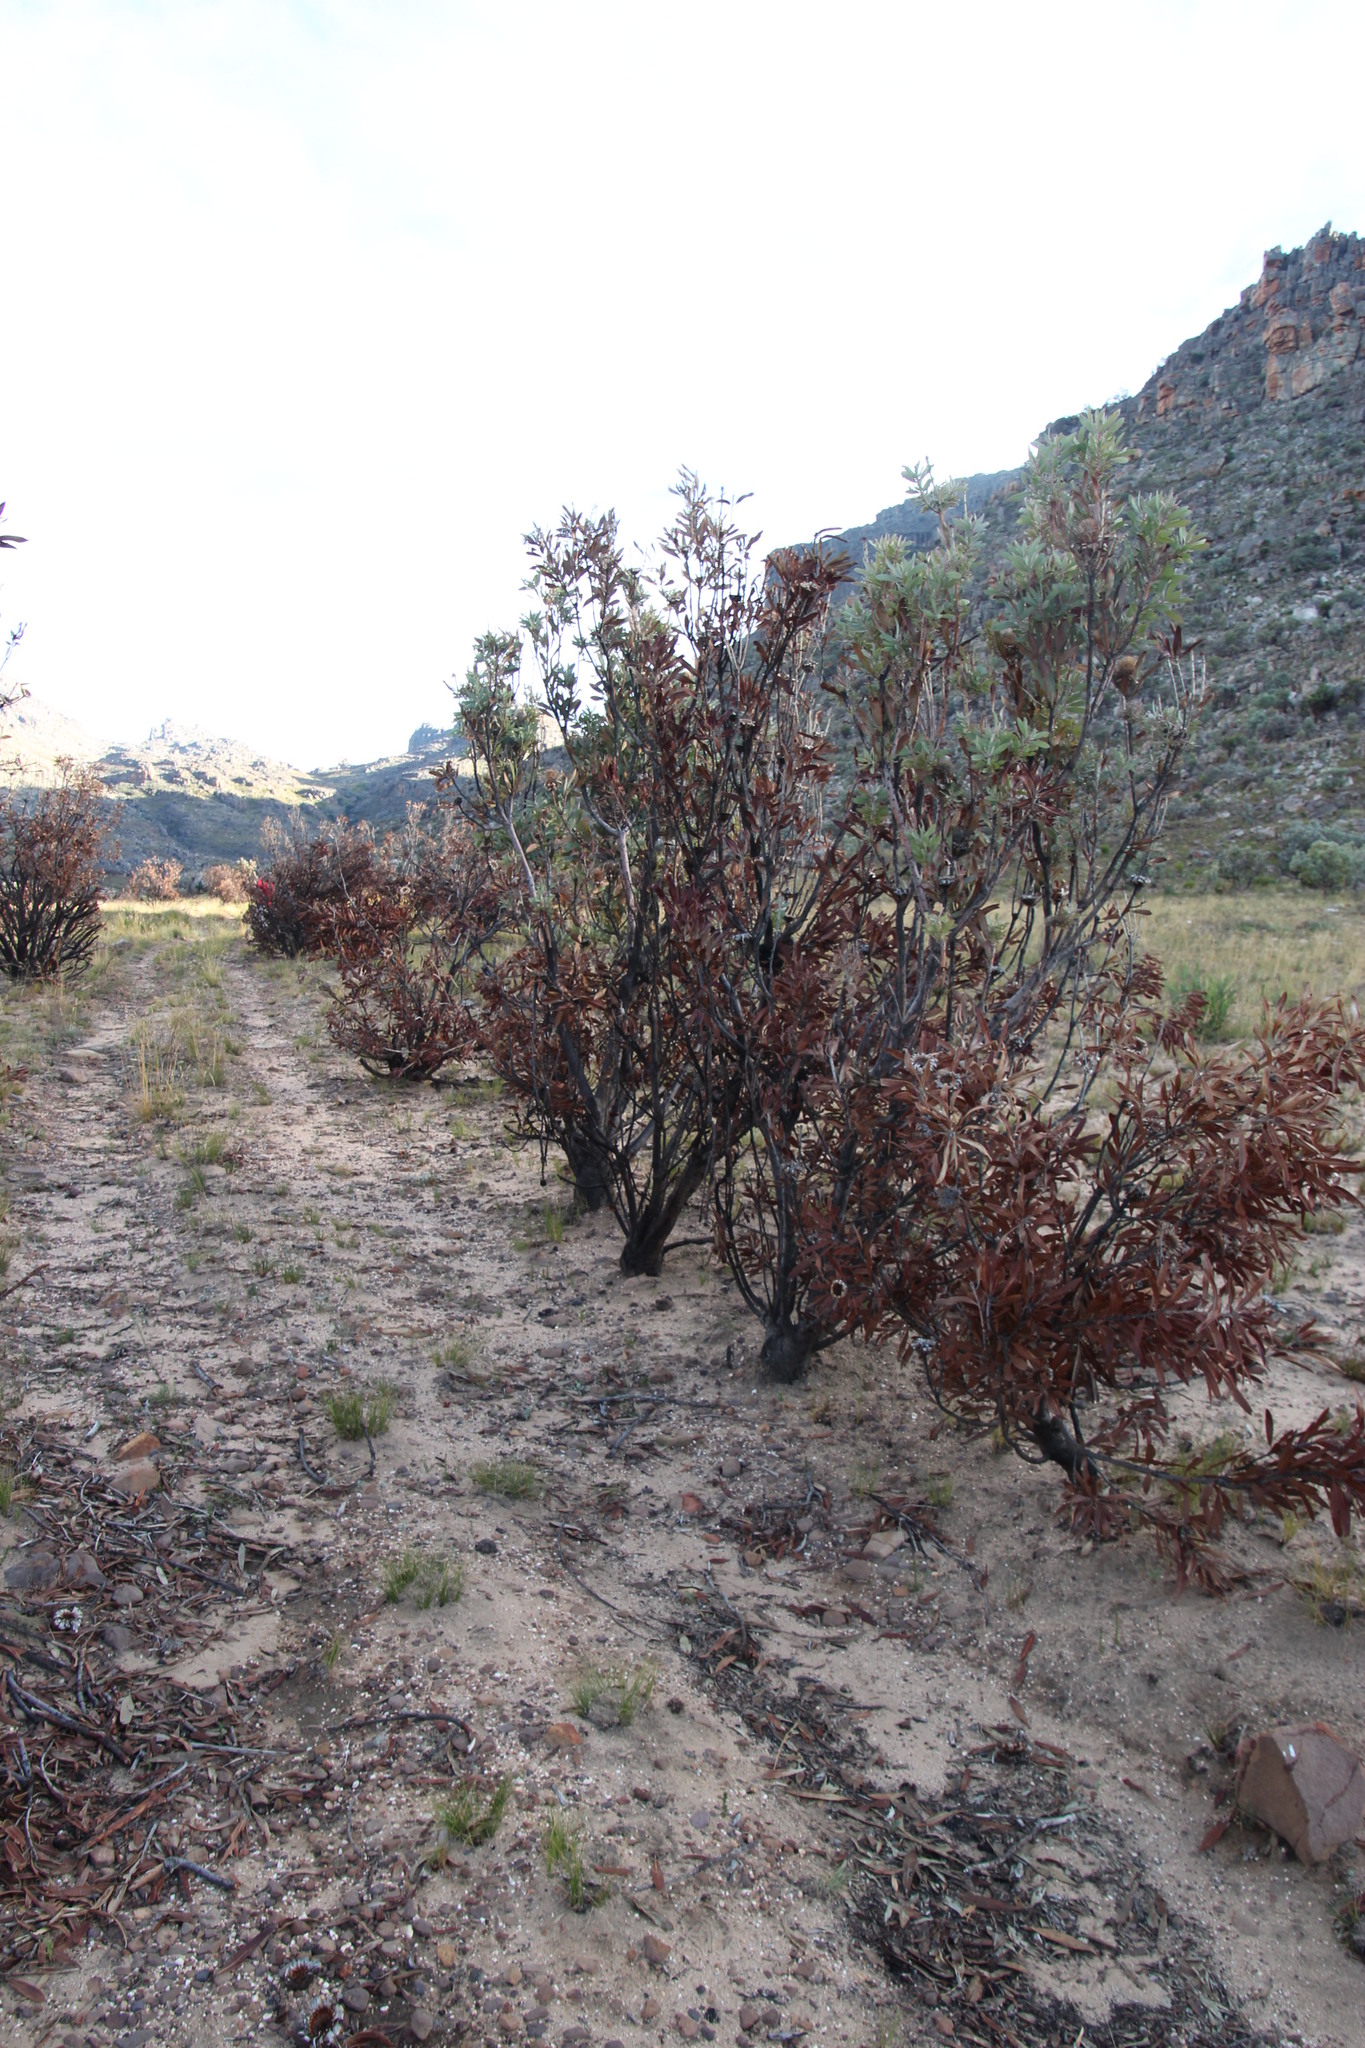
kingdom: Plantae
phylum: Tracheophyta
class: Magnoliopsida
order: Proteales
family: Proteaceae
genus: Protea
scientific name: Protea laurifolia
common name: Grey-leaf sugarbsh
